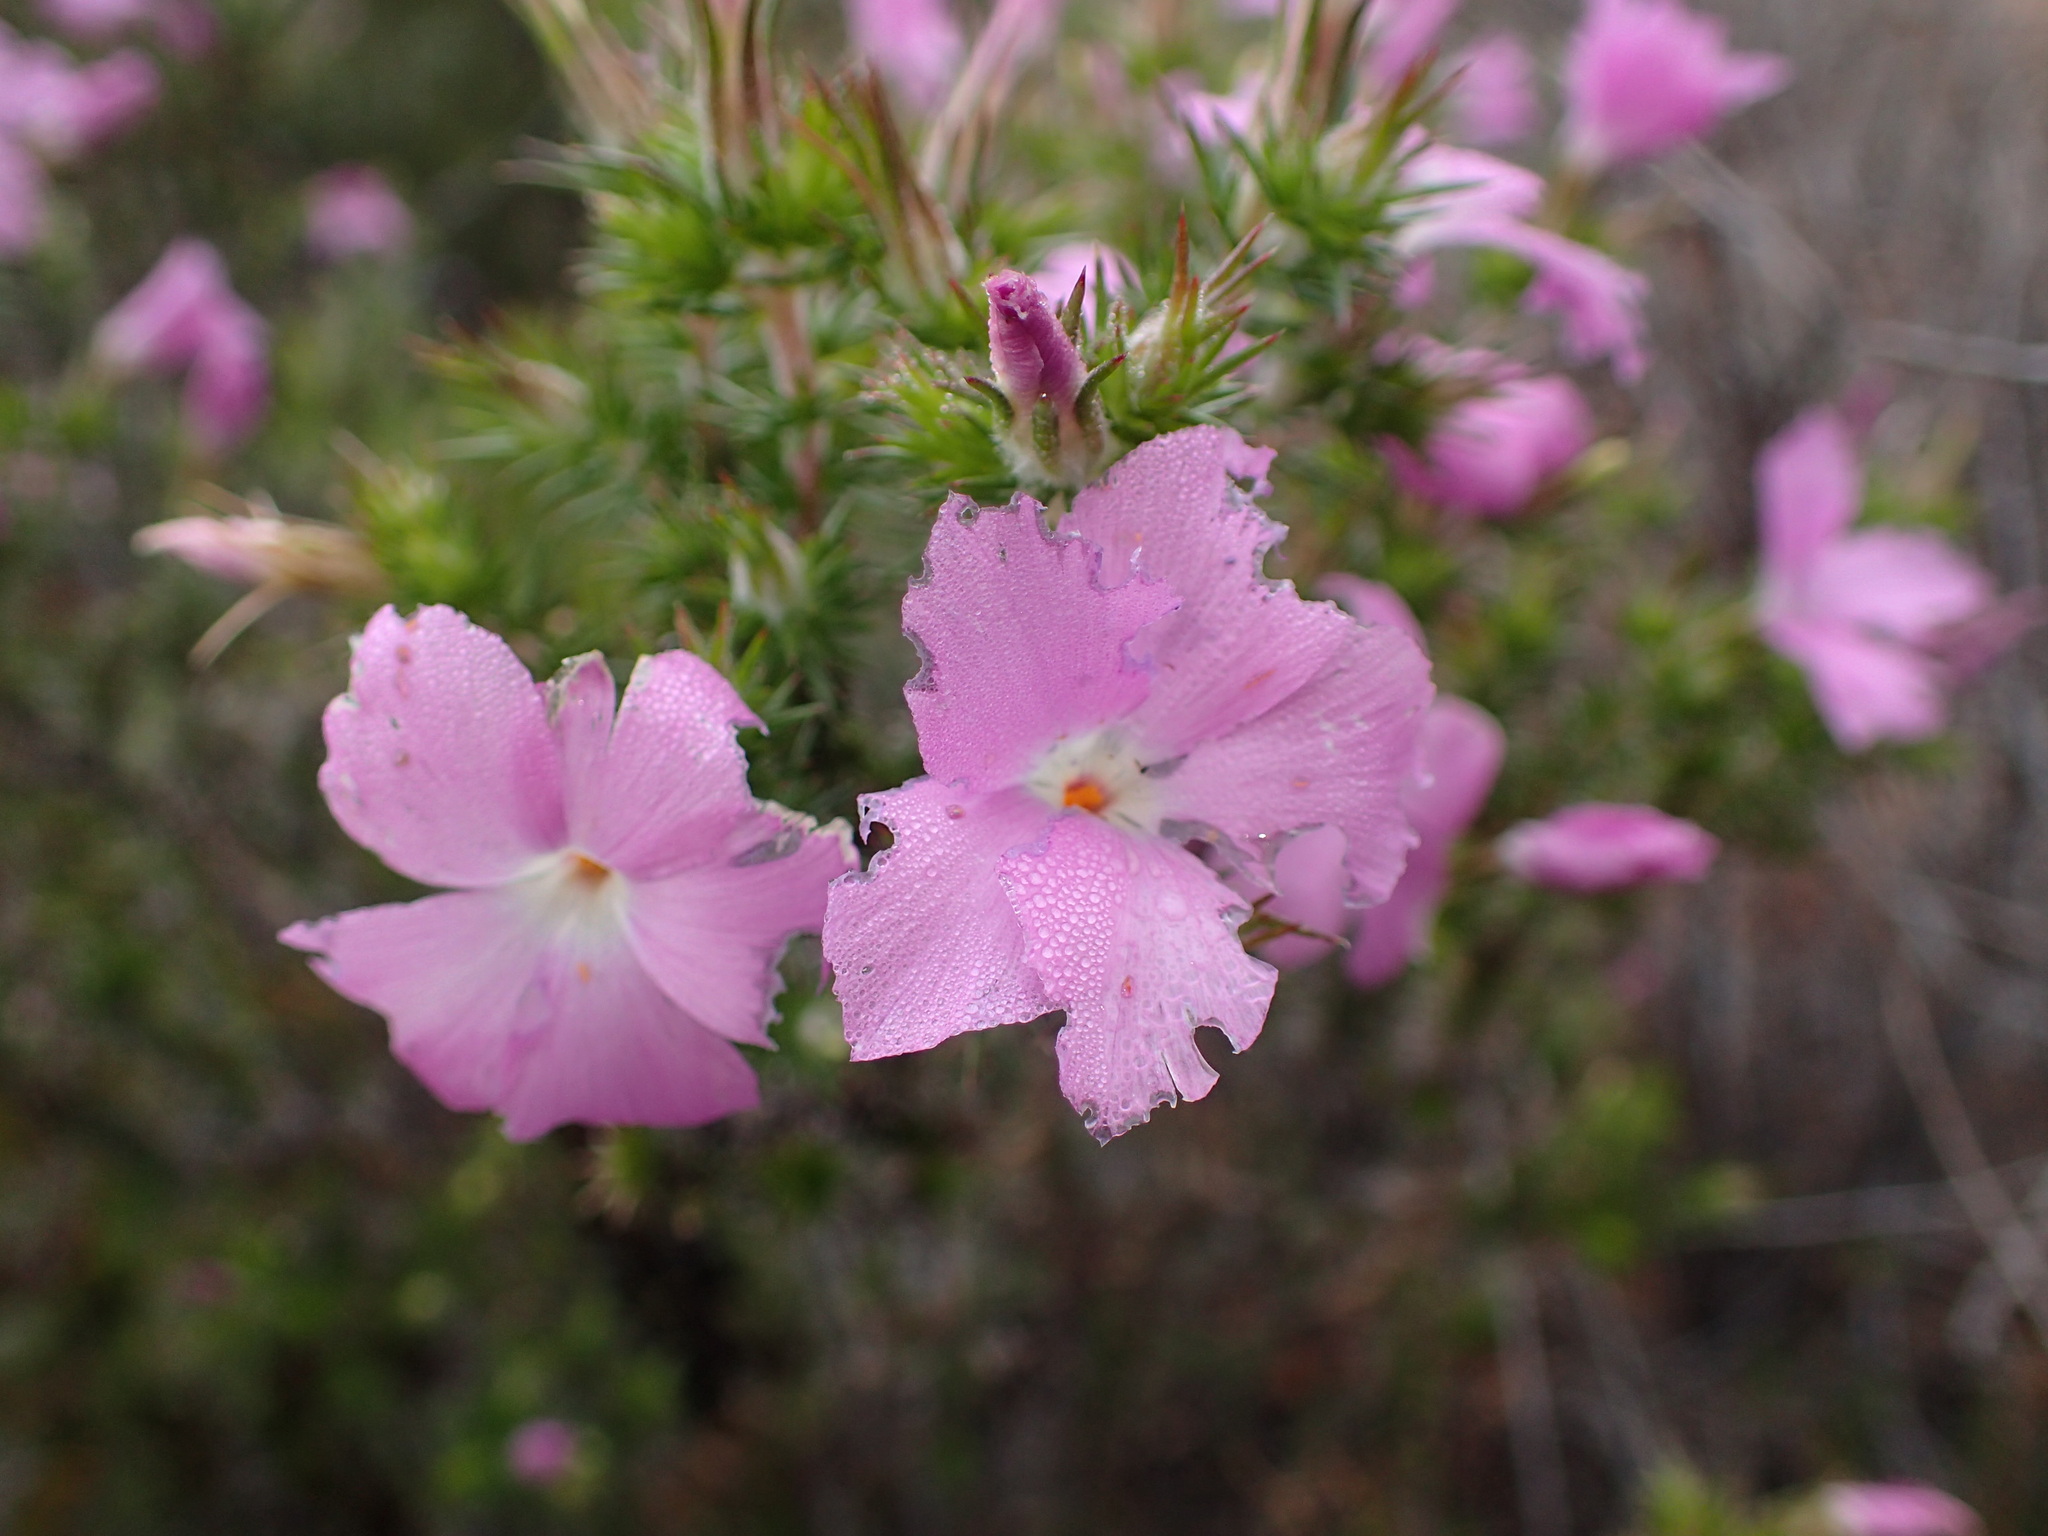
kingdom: Plantae
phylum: Tracheophyta
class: Magnoliopsida
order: Ericales
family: Polemoniaceae
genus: Linanthus
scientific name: Linanthus californicus
